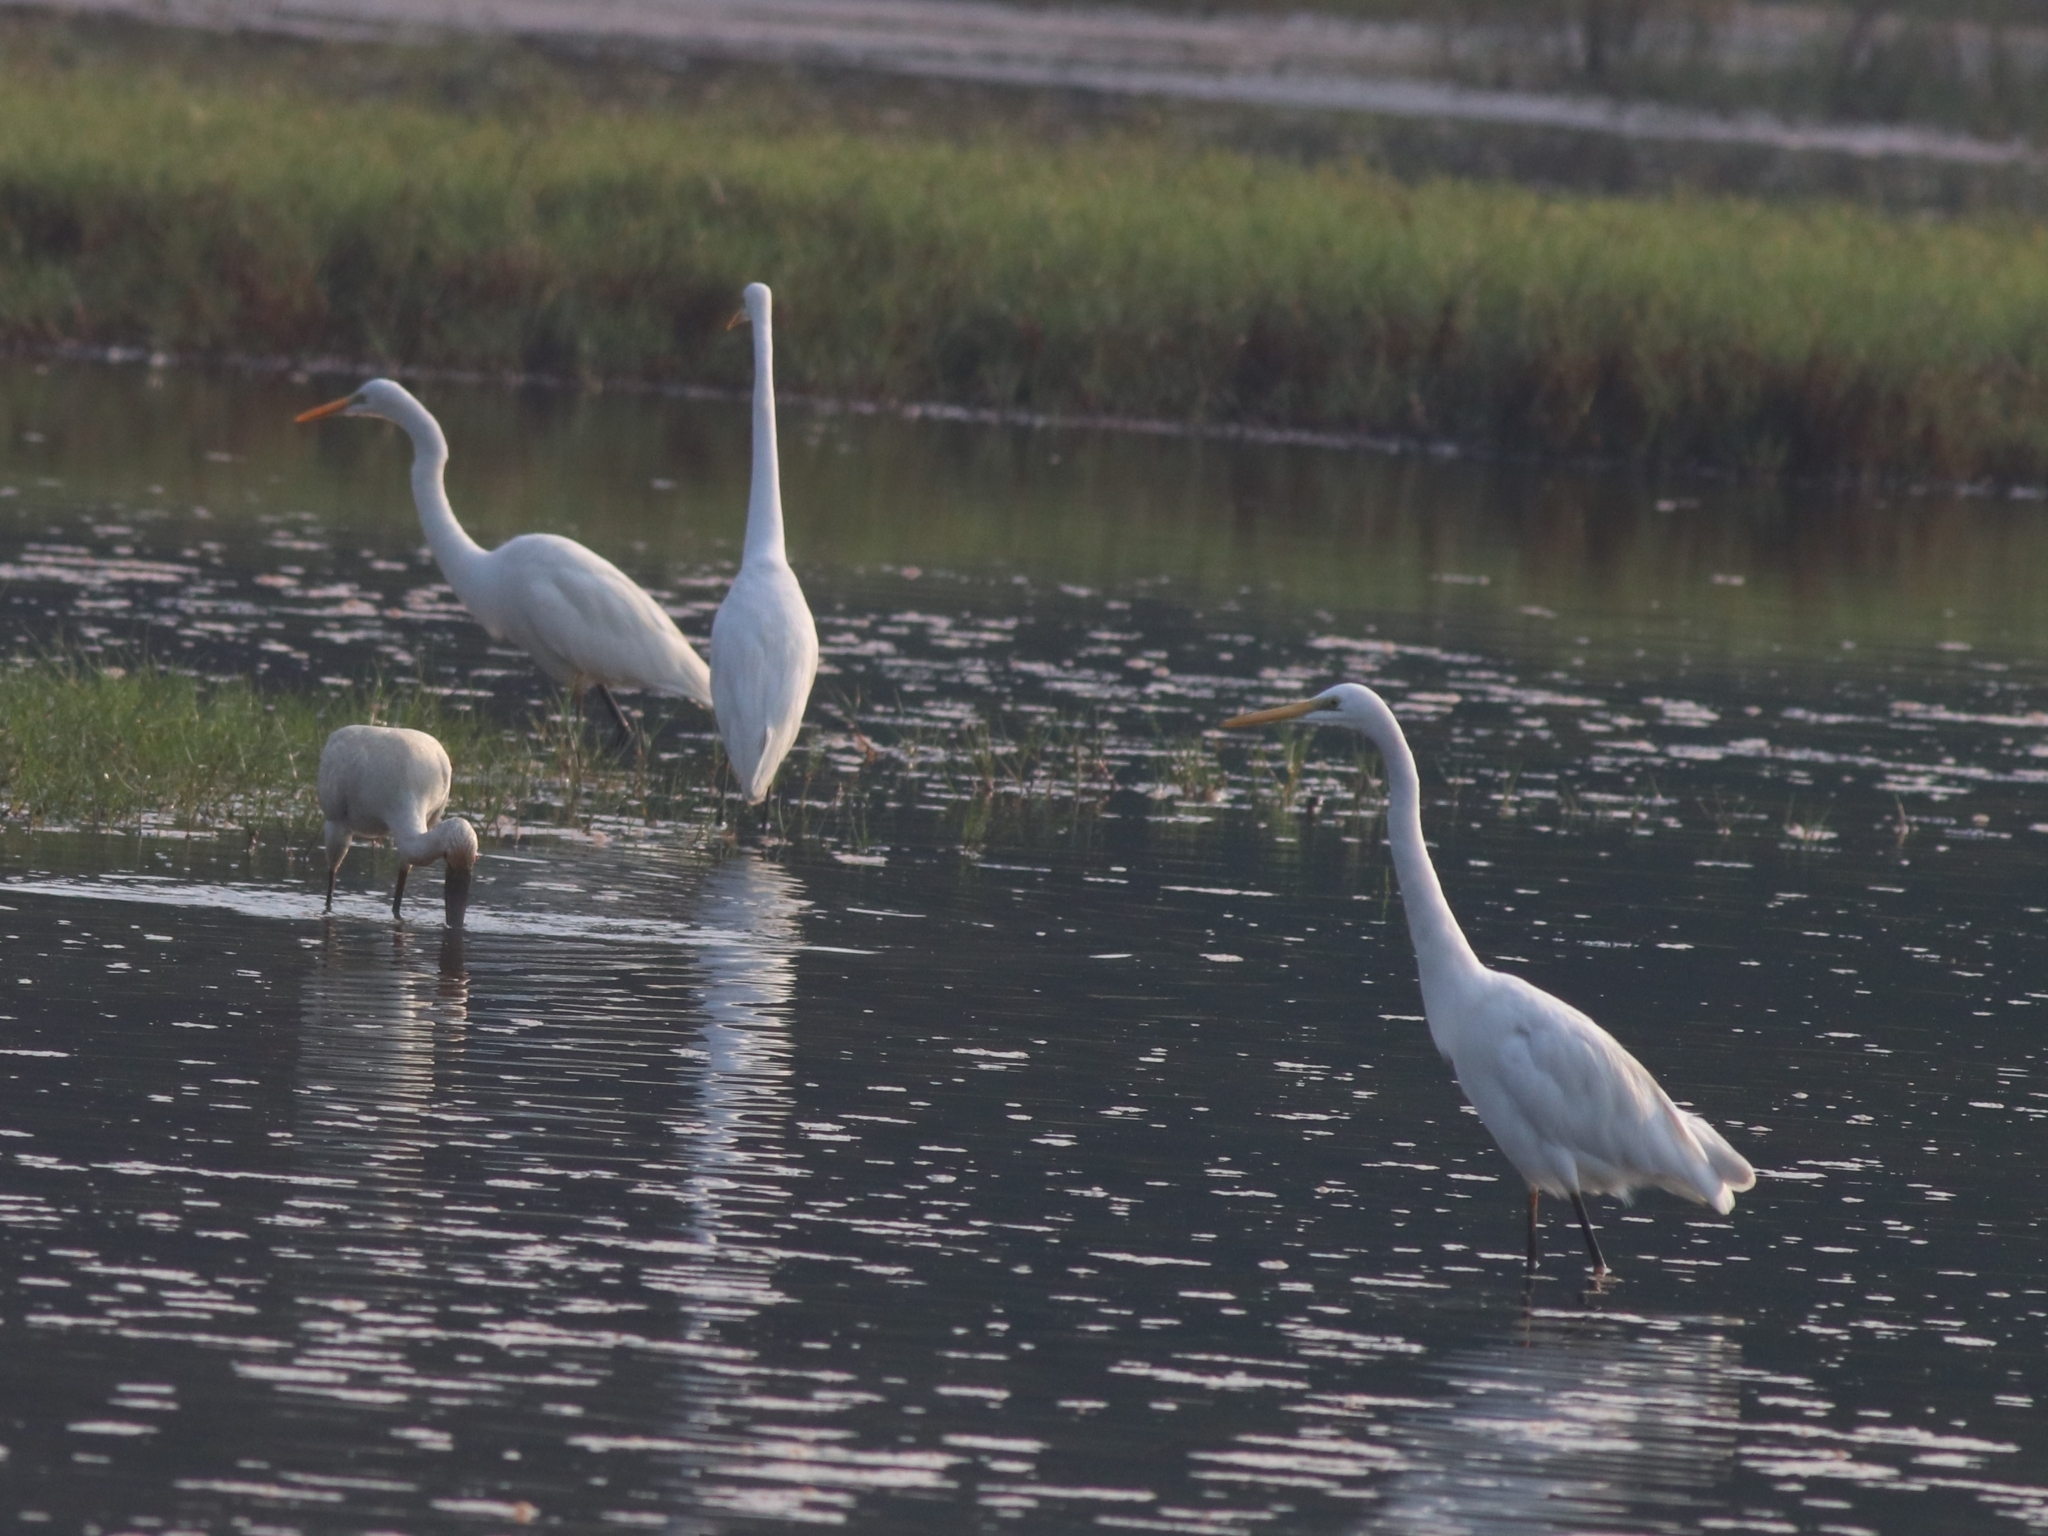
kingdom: Animalia
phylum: Chordata
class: Aves
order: Pelecaniformes
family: Ardeidae
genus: Egretta
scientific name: Egretta intermedia
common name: Intermediate egret
